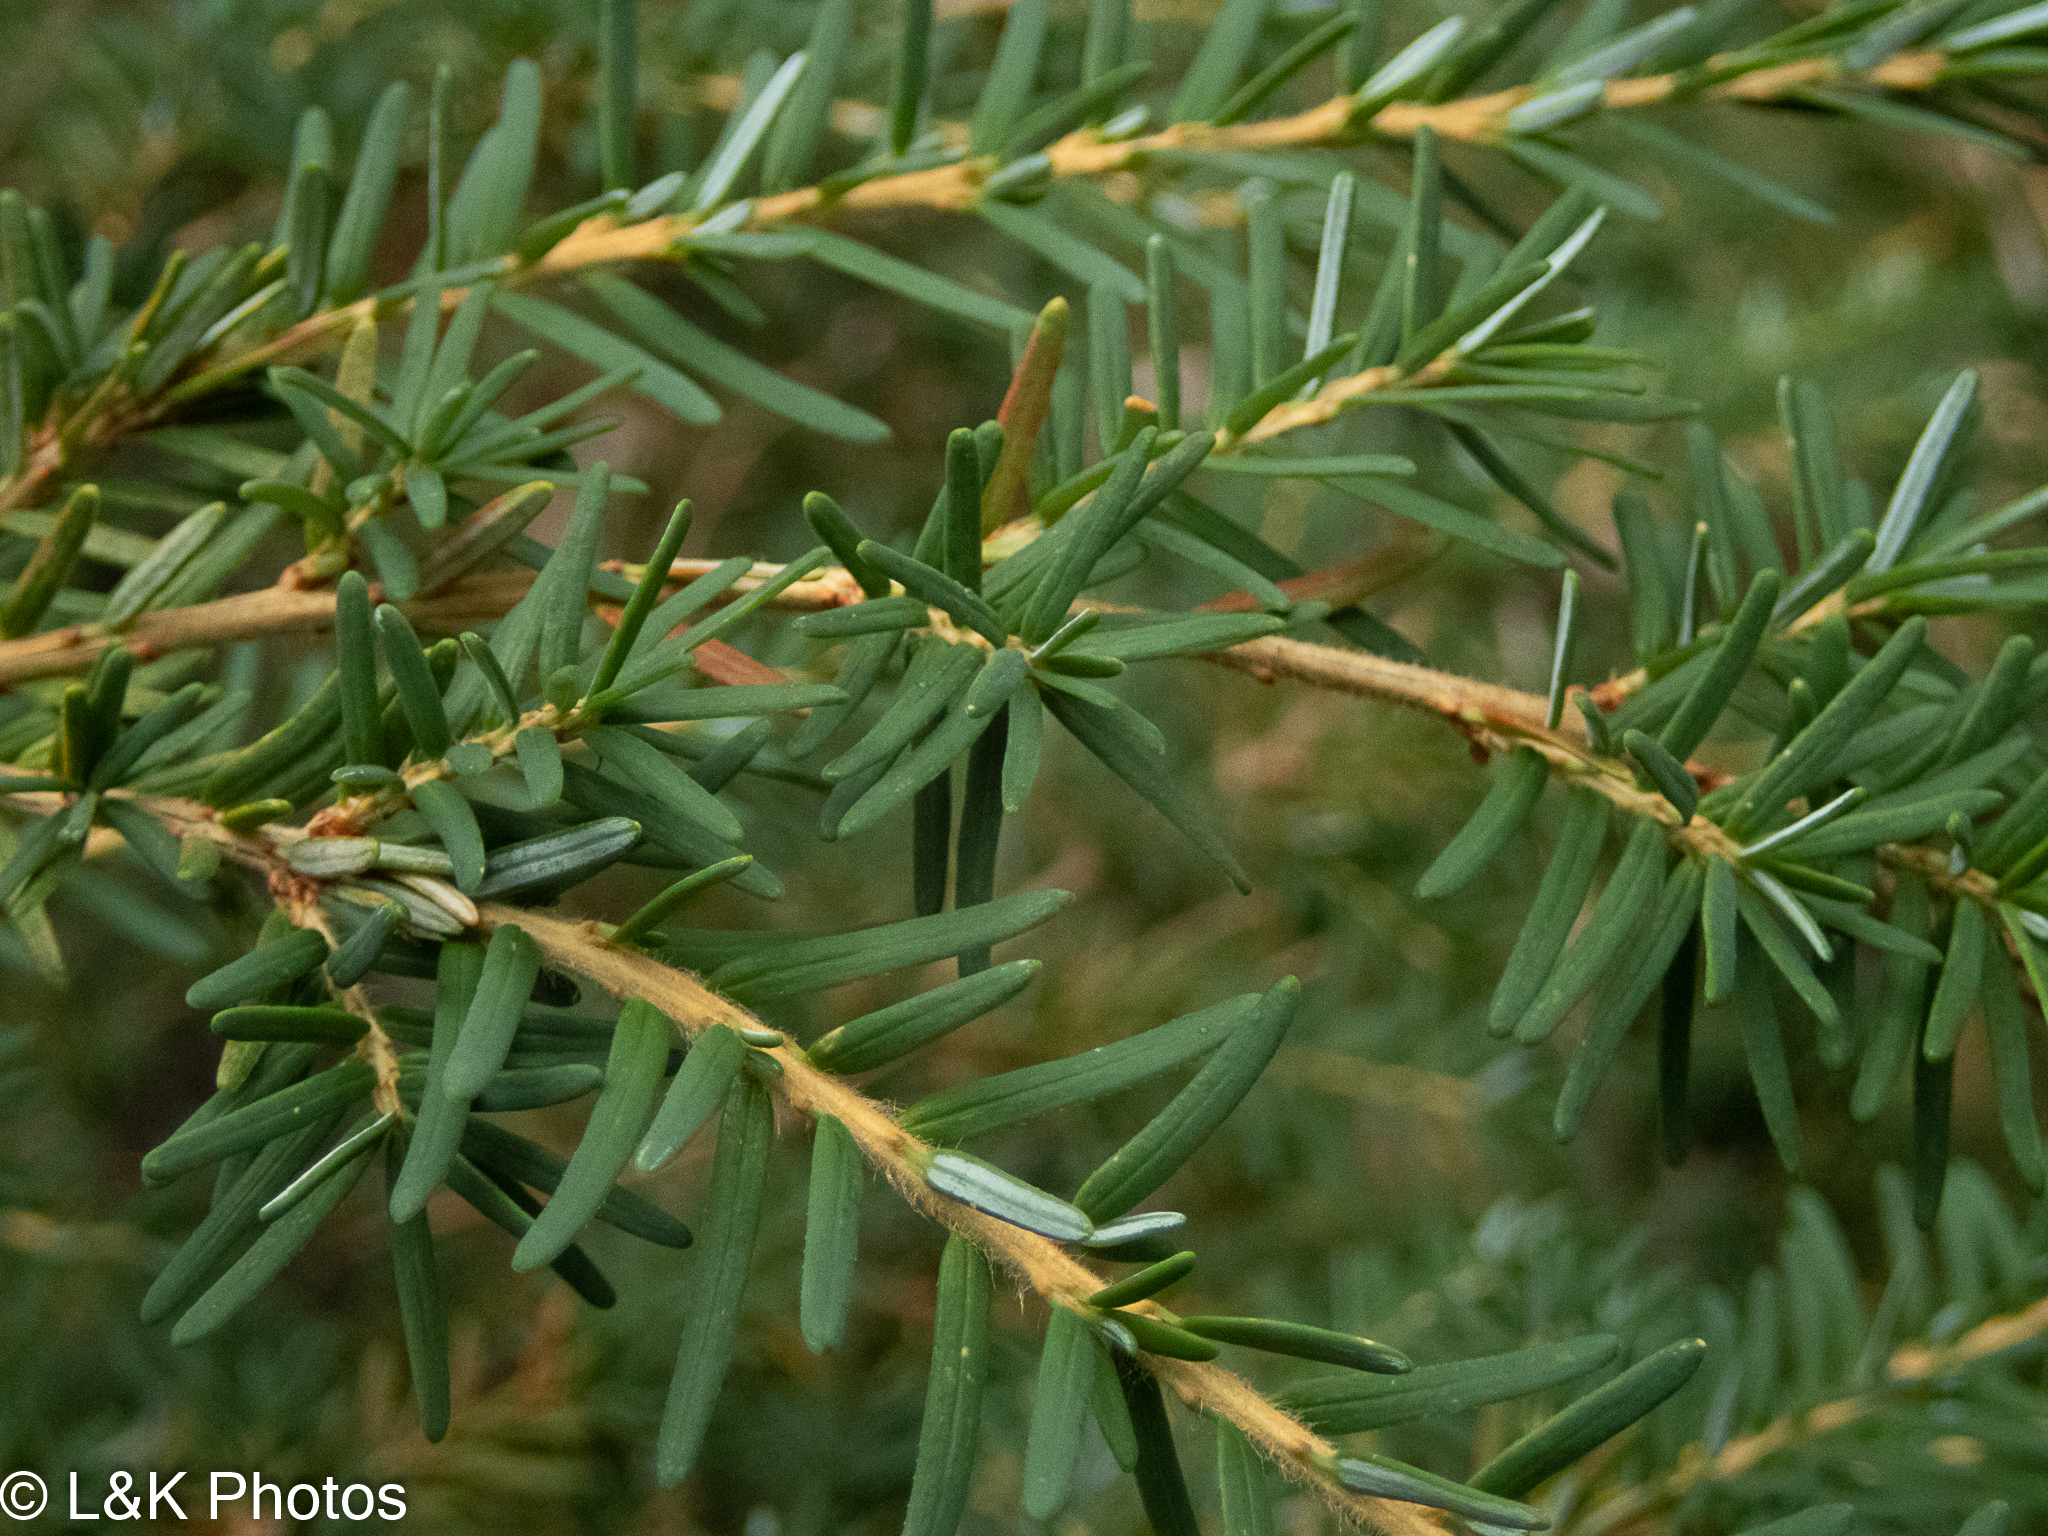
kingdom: Plantae
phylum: Tracheophyta
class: Pinopsida
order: Pinales
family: Pinaceae
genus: Tsuga
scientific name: Tsuga heterophylla
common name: Western hemlock
